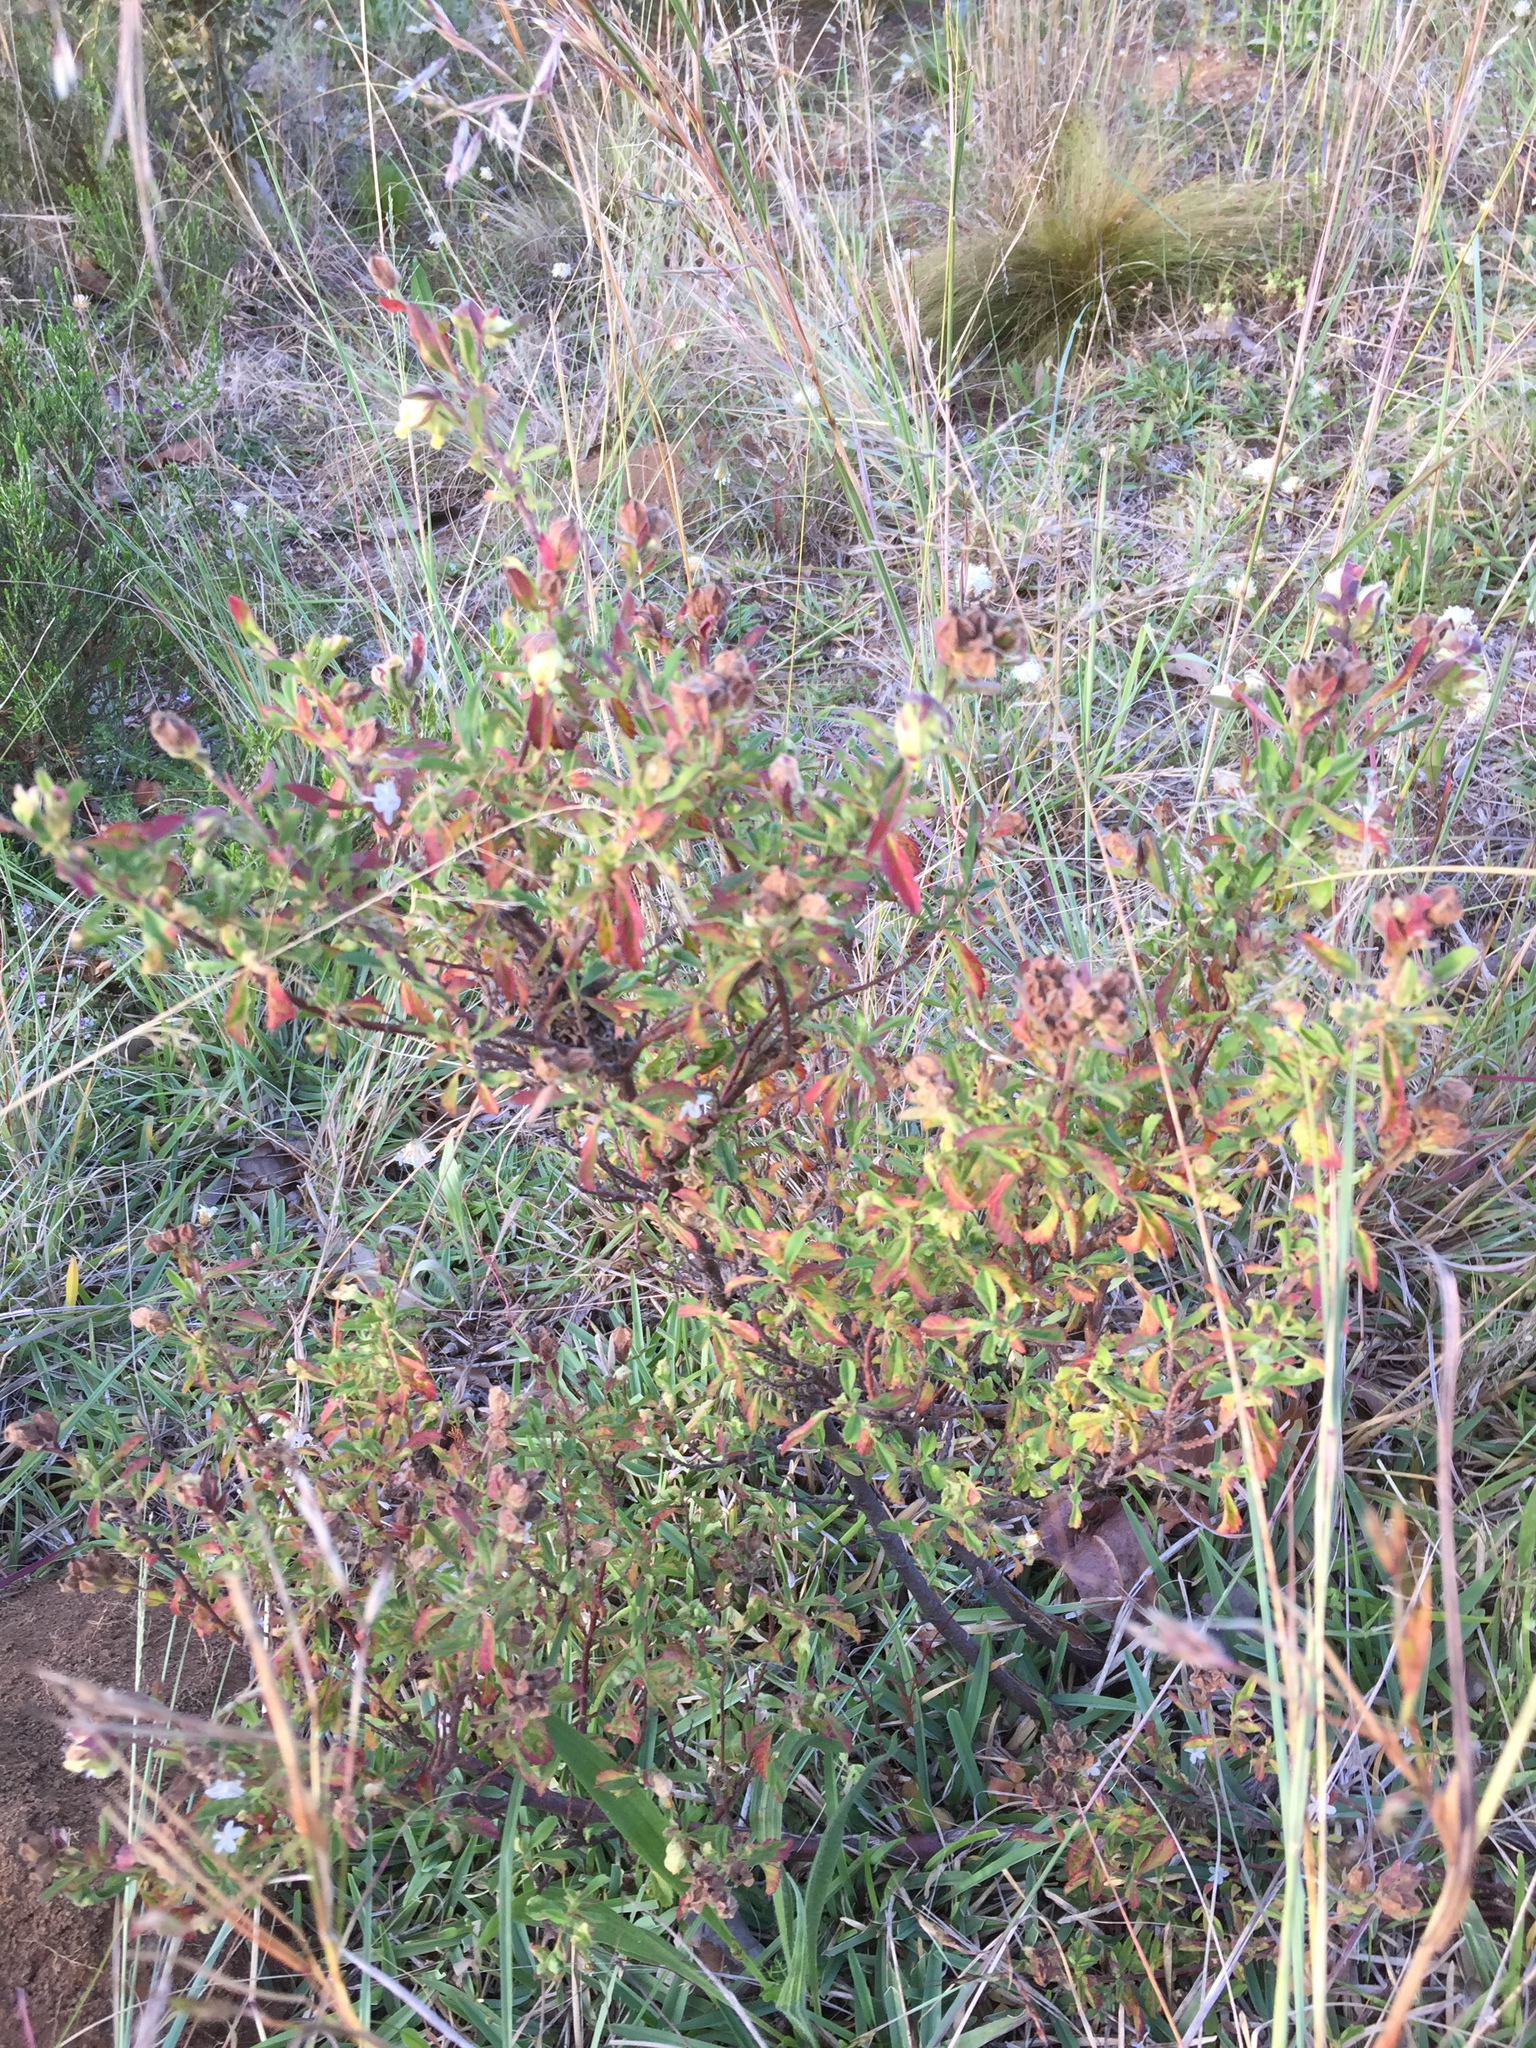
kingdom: Plantae
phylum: Tracheophyta
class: Magnoliopsida
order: Malvales
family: Malvaceae
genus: Hermannia
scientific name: Hermannia hyssopifolia
